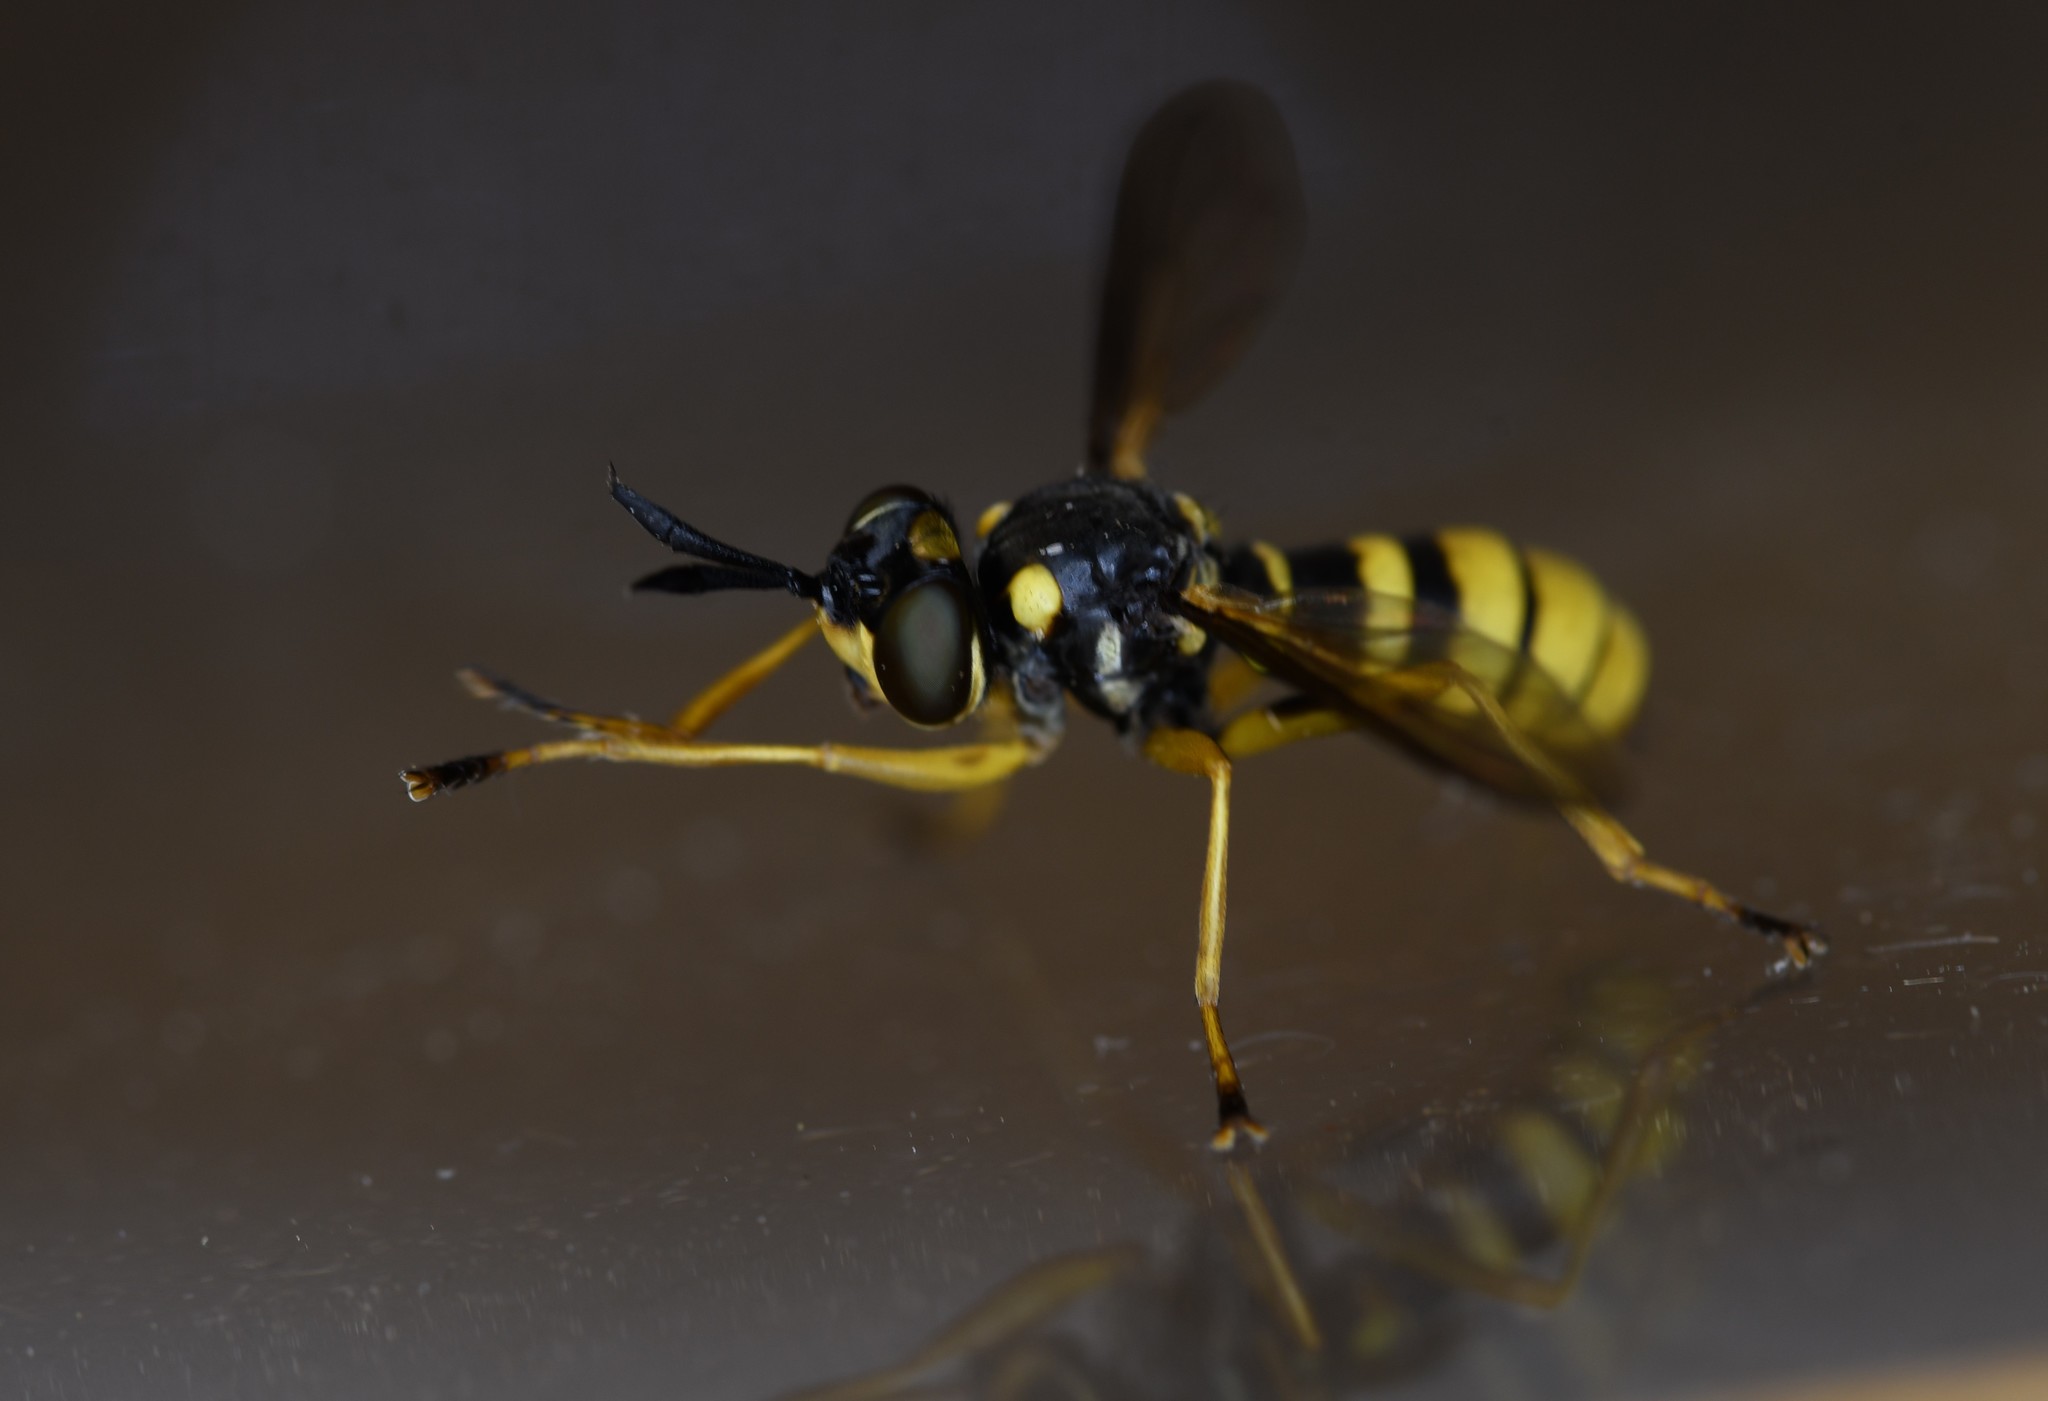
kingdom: Animalia
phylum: Arthropoda
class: Insecta
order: Diptera
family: Conopidae
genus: Leopoldius
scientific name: Leopoldius coronatus
